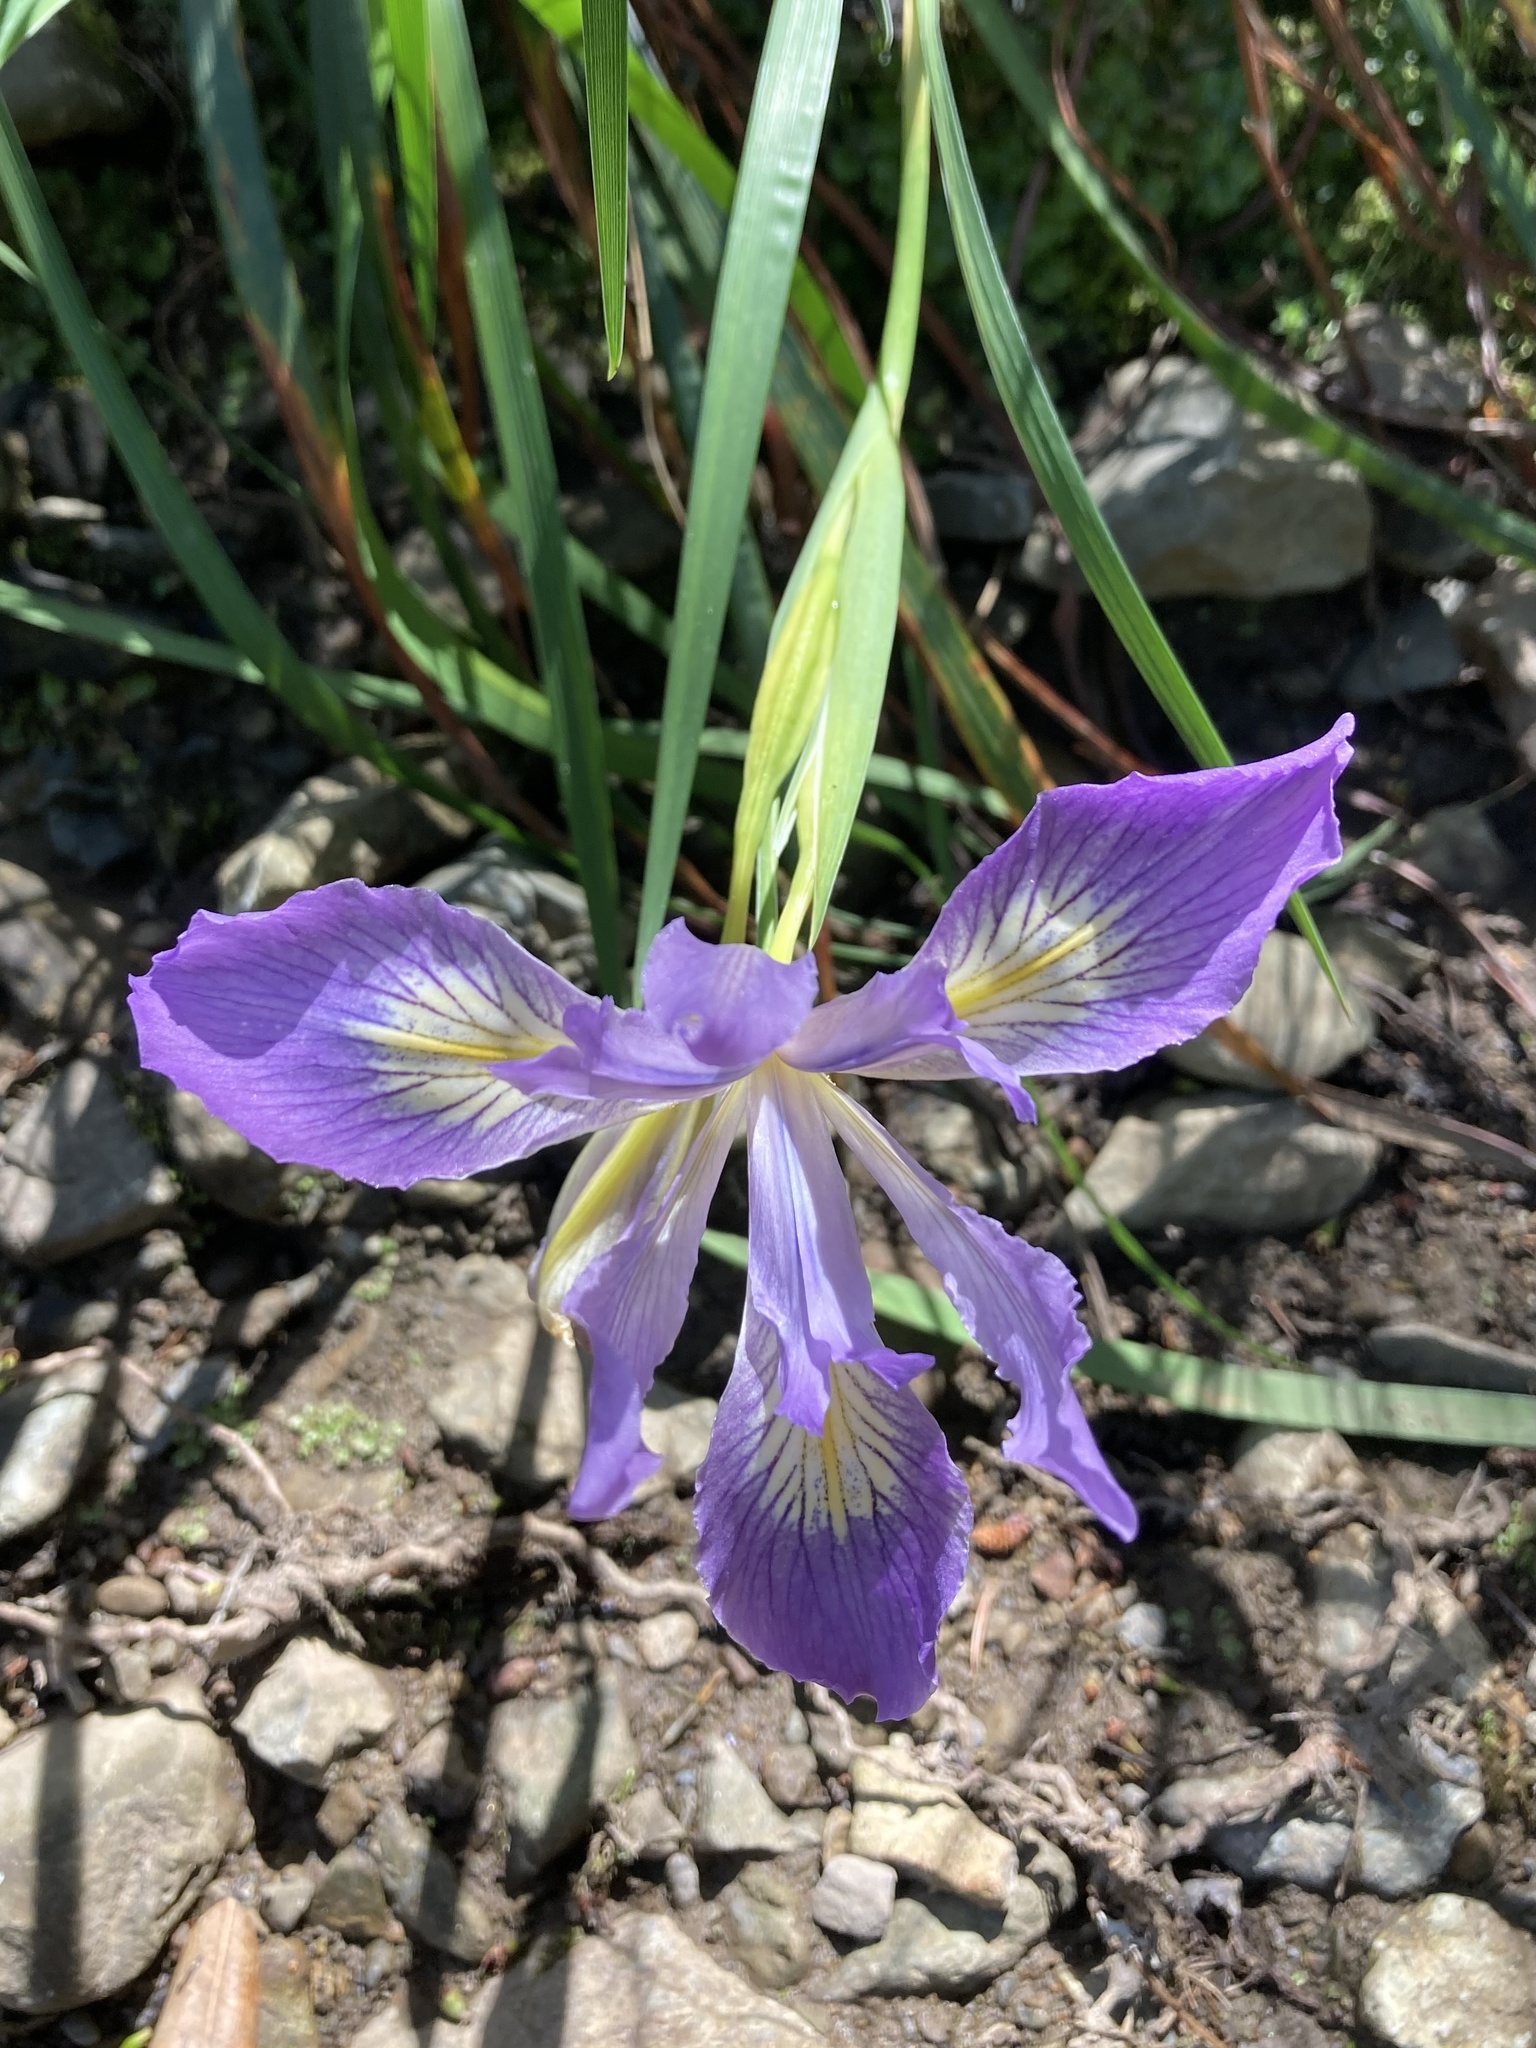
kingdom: Plantae
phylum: Tracheophyta
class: Liliopsida
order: Asparagales
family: Iridaceae
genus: Iris
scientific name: Iris douglasiana
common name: Marin iris
